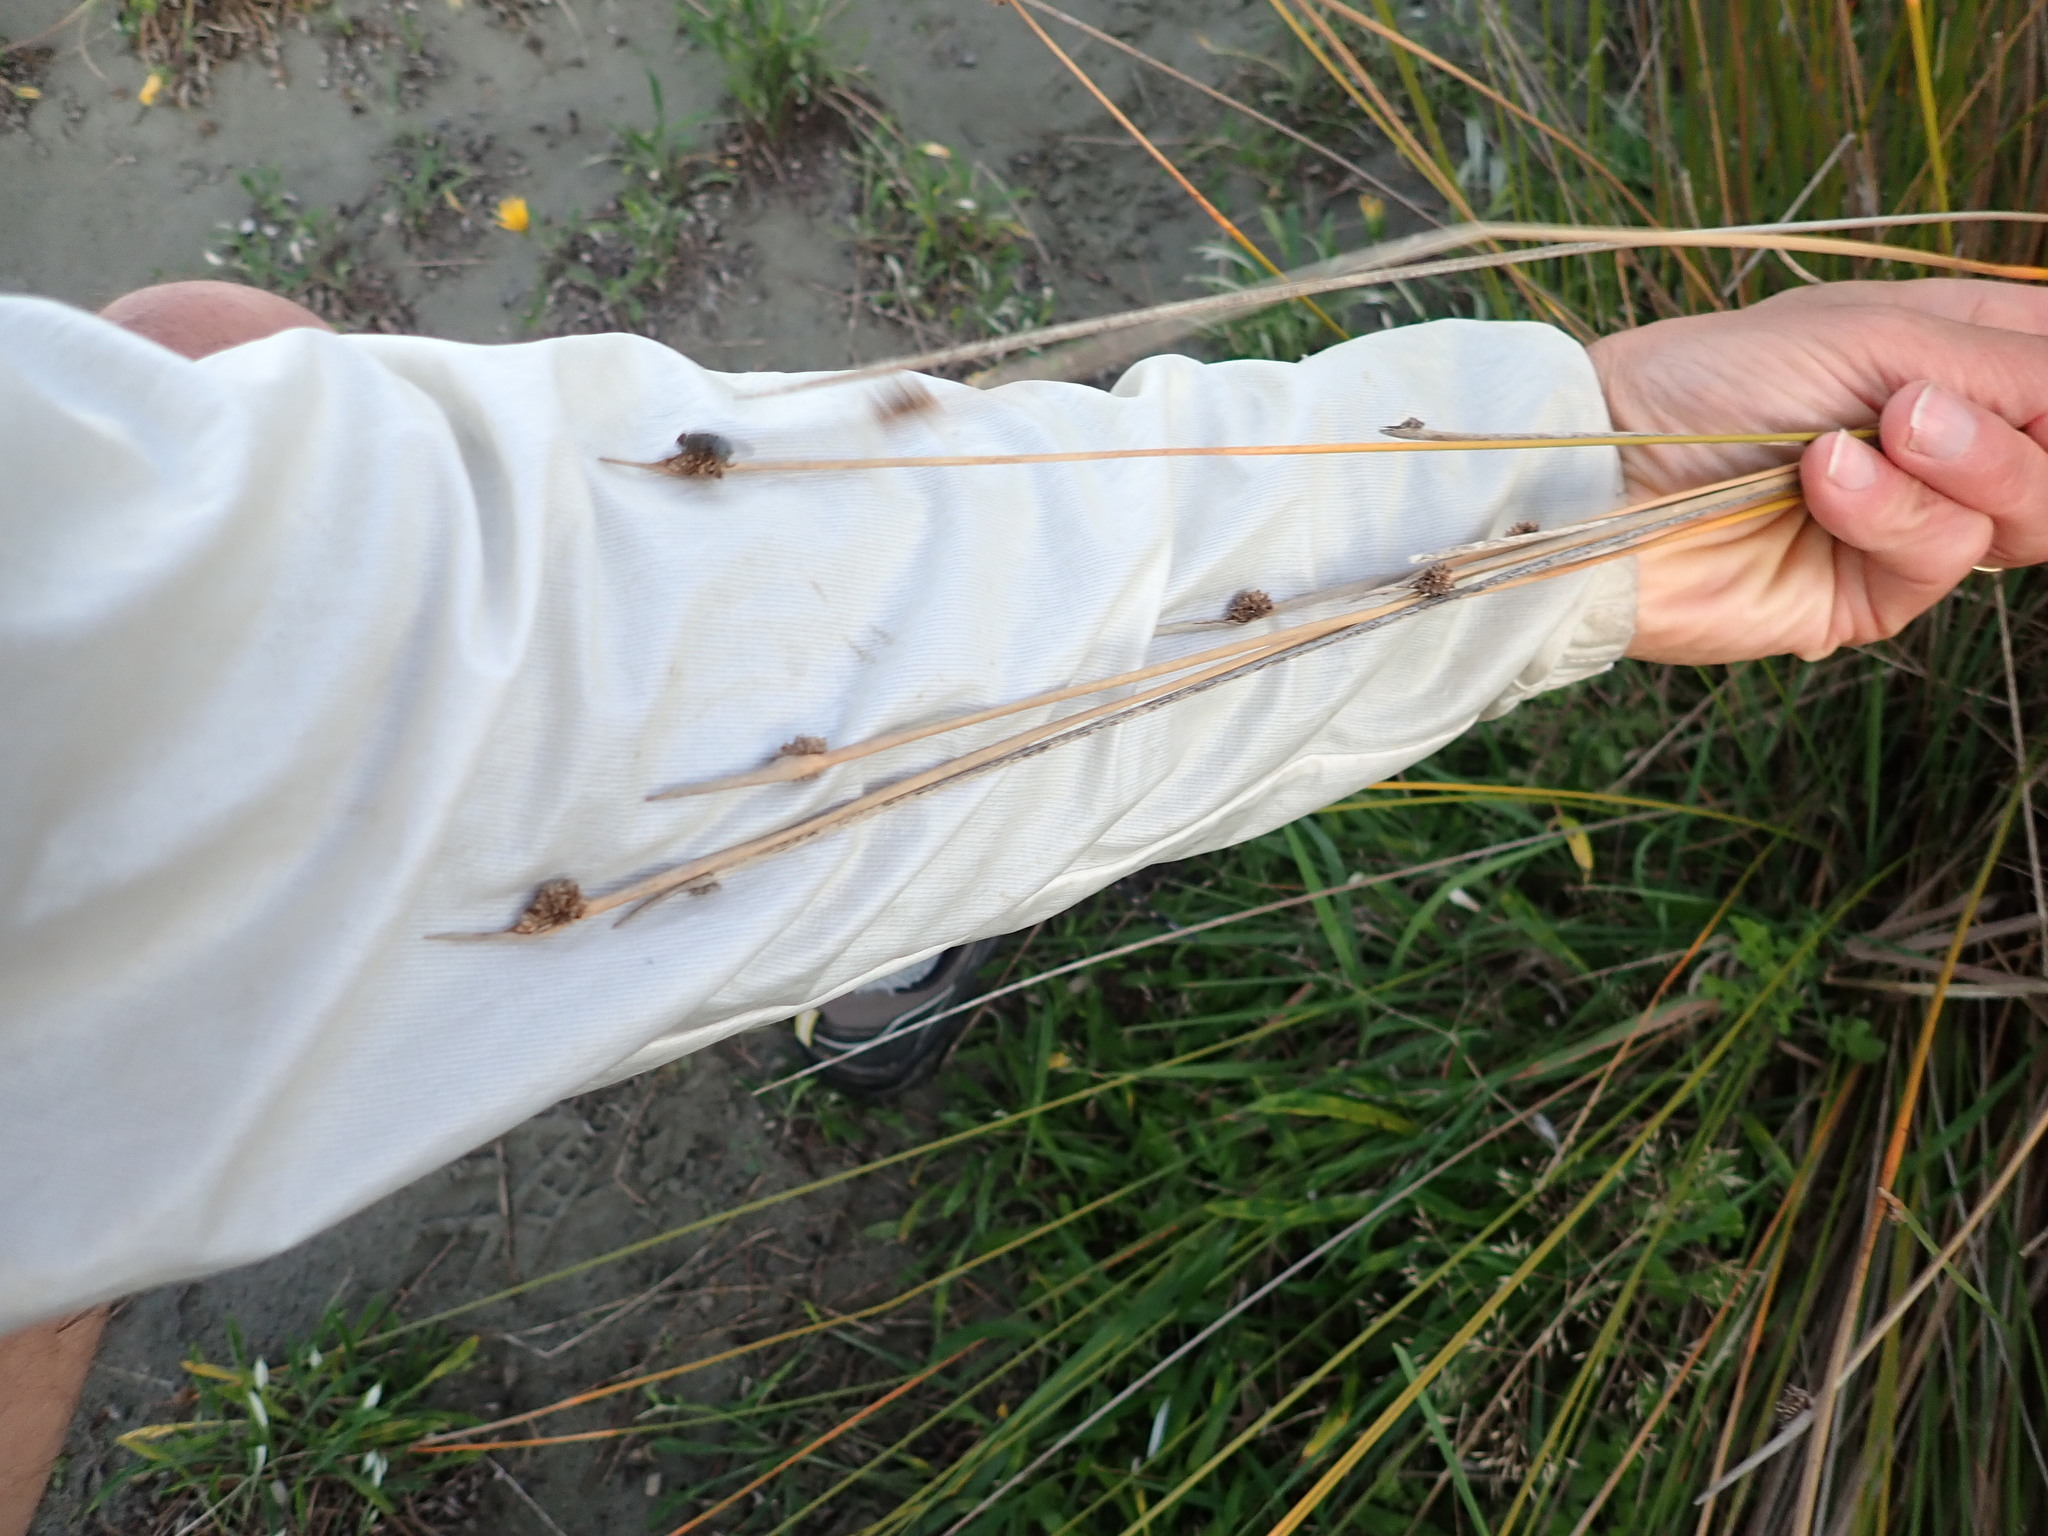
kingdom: Plantae
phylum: Tracheophyta
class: Liliopsida
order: Poales
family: Cyperaceae
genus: Ficinia
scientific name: Ficinia nodosa
